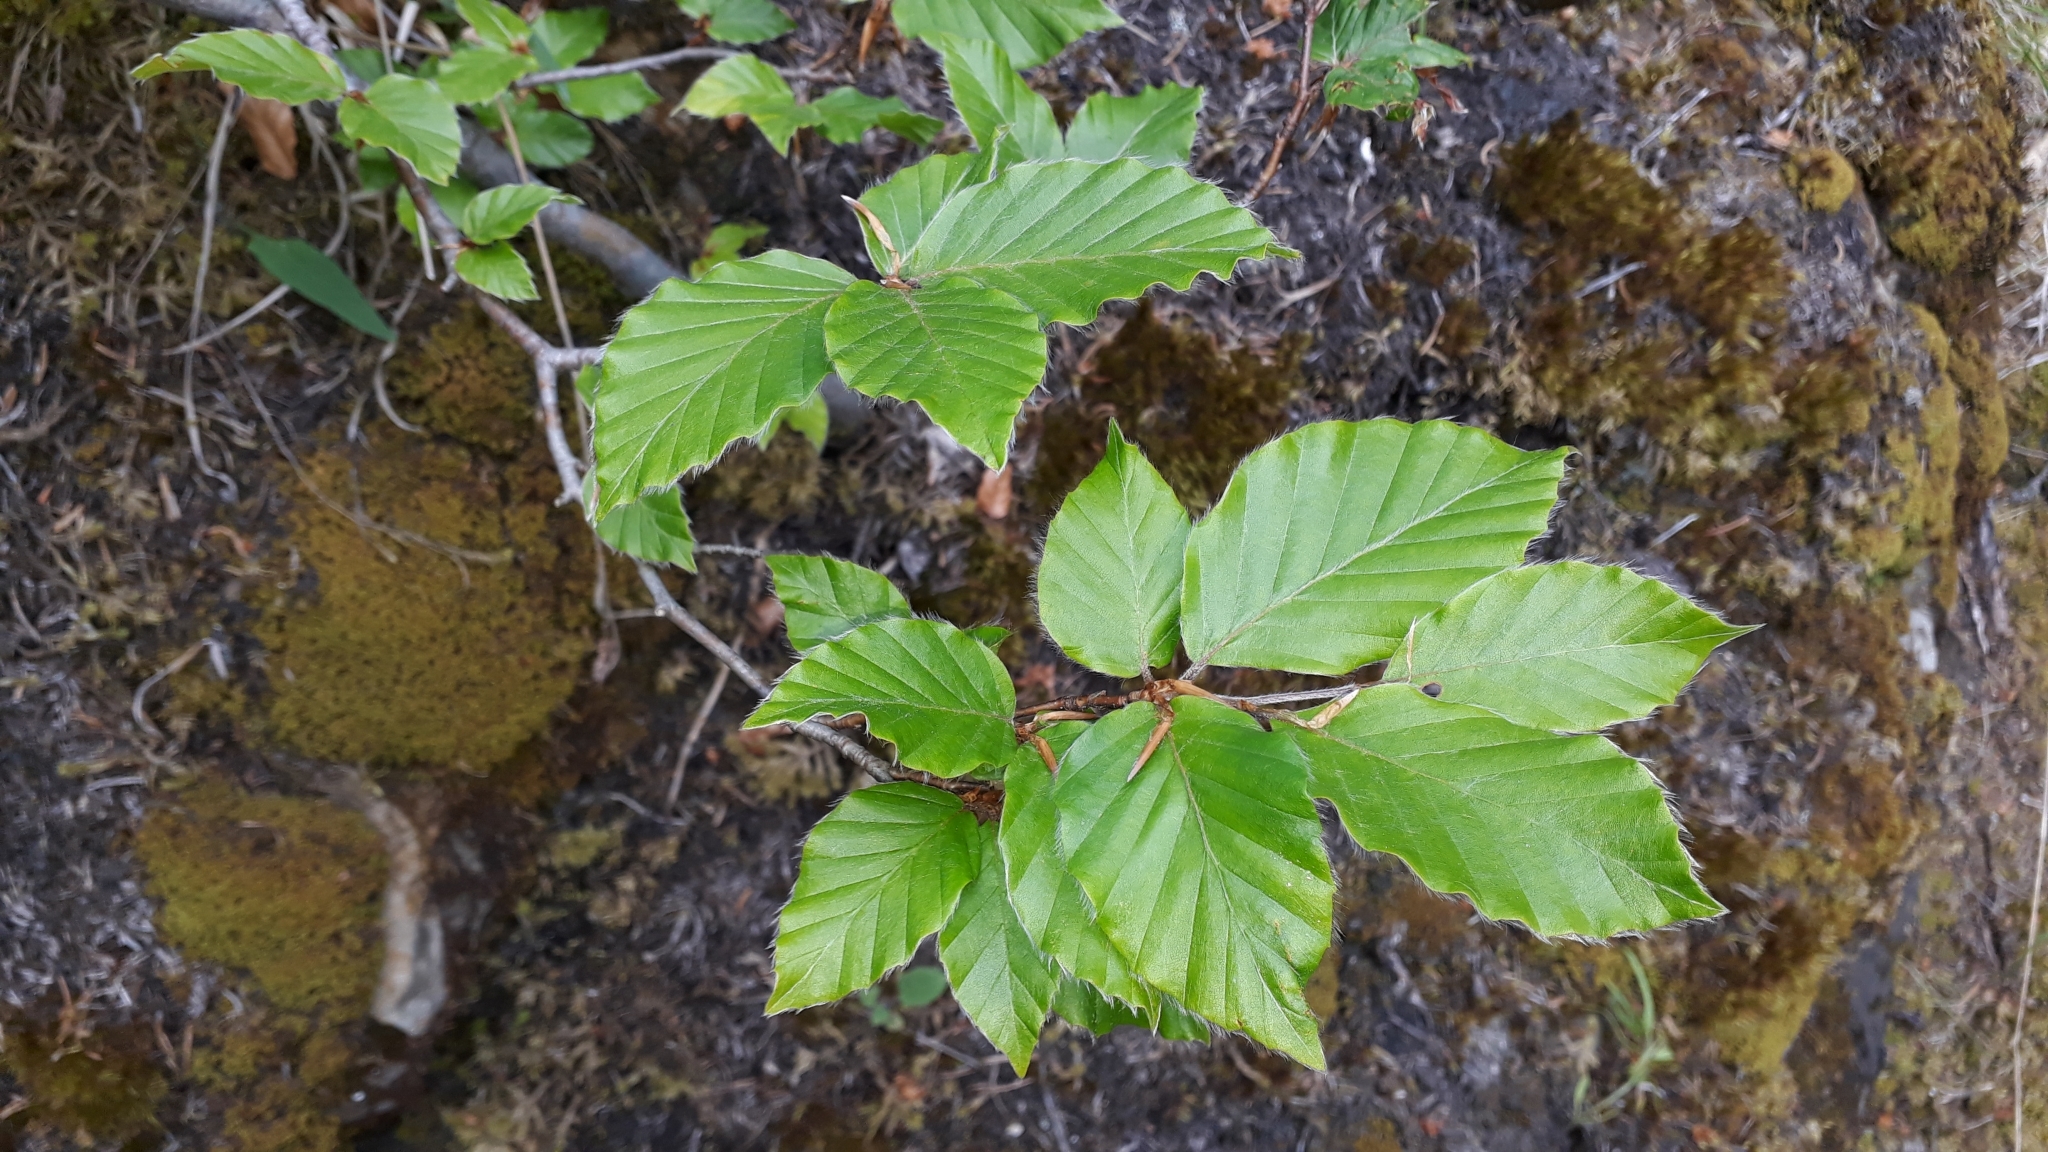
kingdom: Plantae
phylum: Tracheophyta
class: Magnoliopsida
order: Fagales
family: Fagaceae
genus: Fagus
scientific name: Fagus sylvatica
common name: Beech
